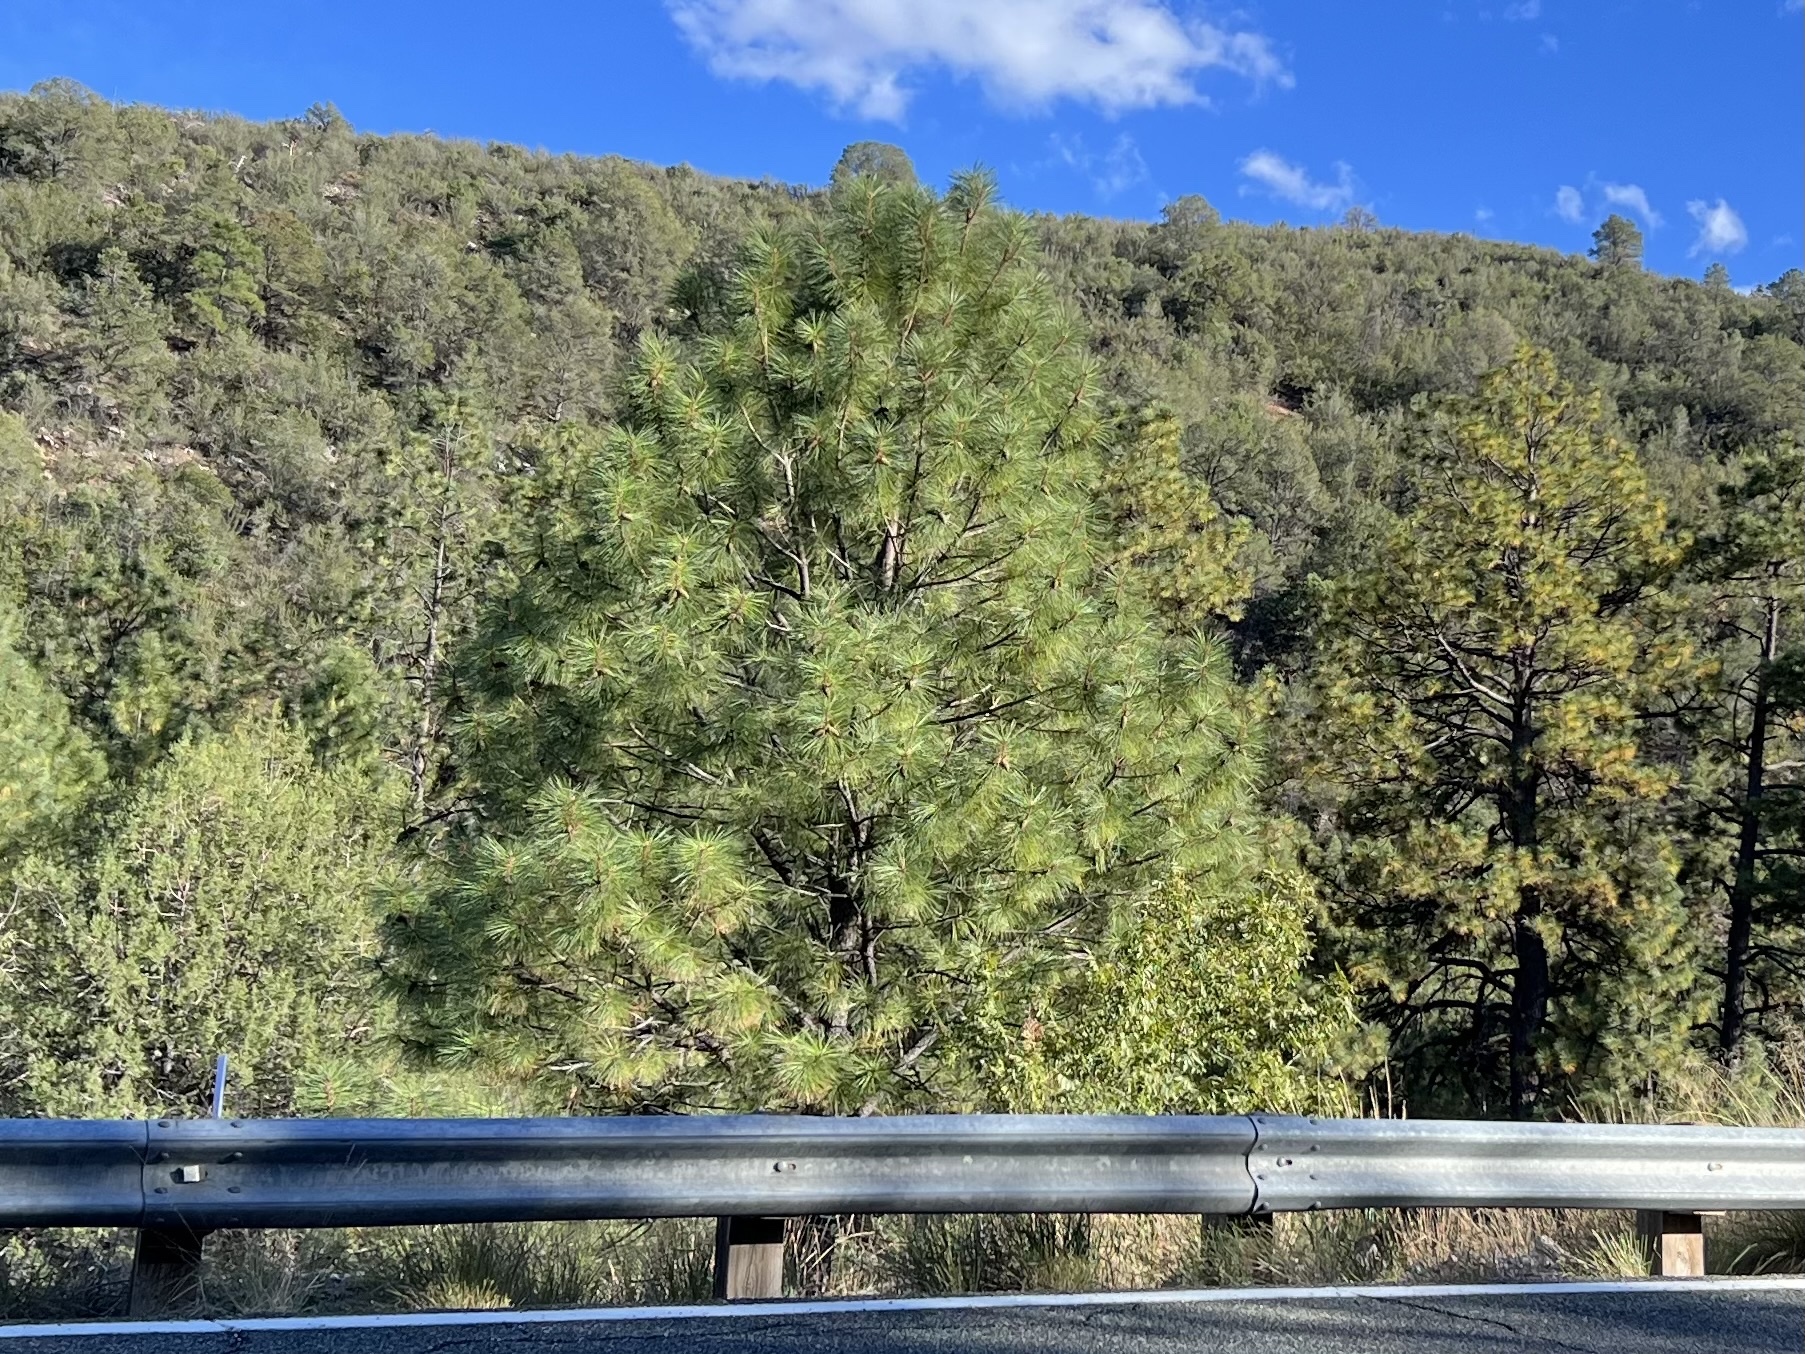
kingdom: Plantae
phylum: Tracheophyta
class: Pinopsida
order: Pinales
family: Pinaceae
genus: Pinus
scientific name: Pinus ponderosa
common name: Western yellow-pine
